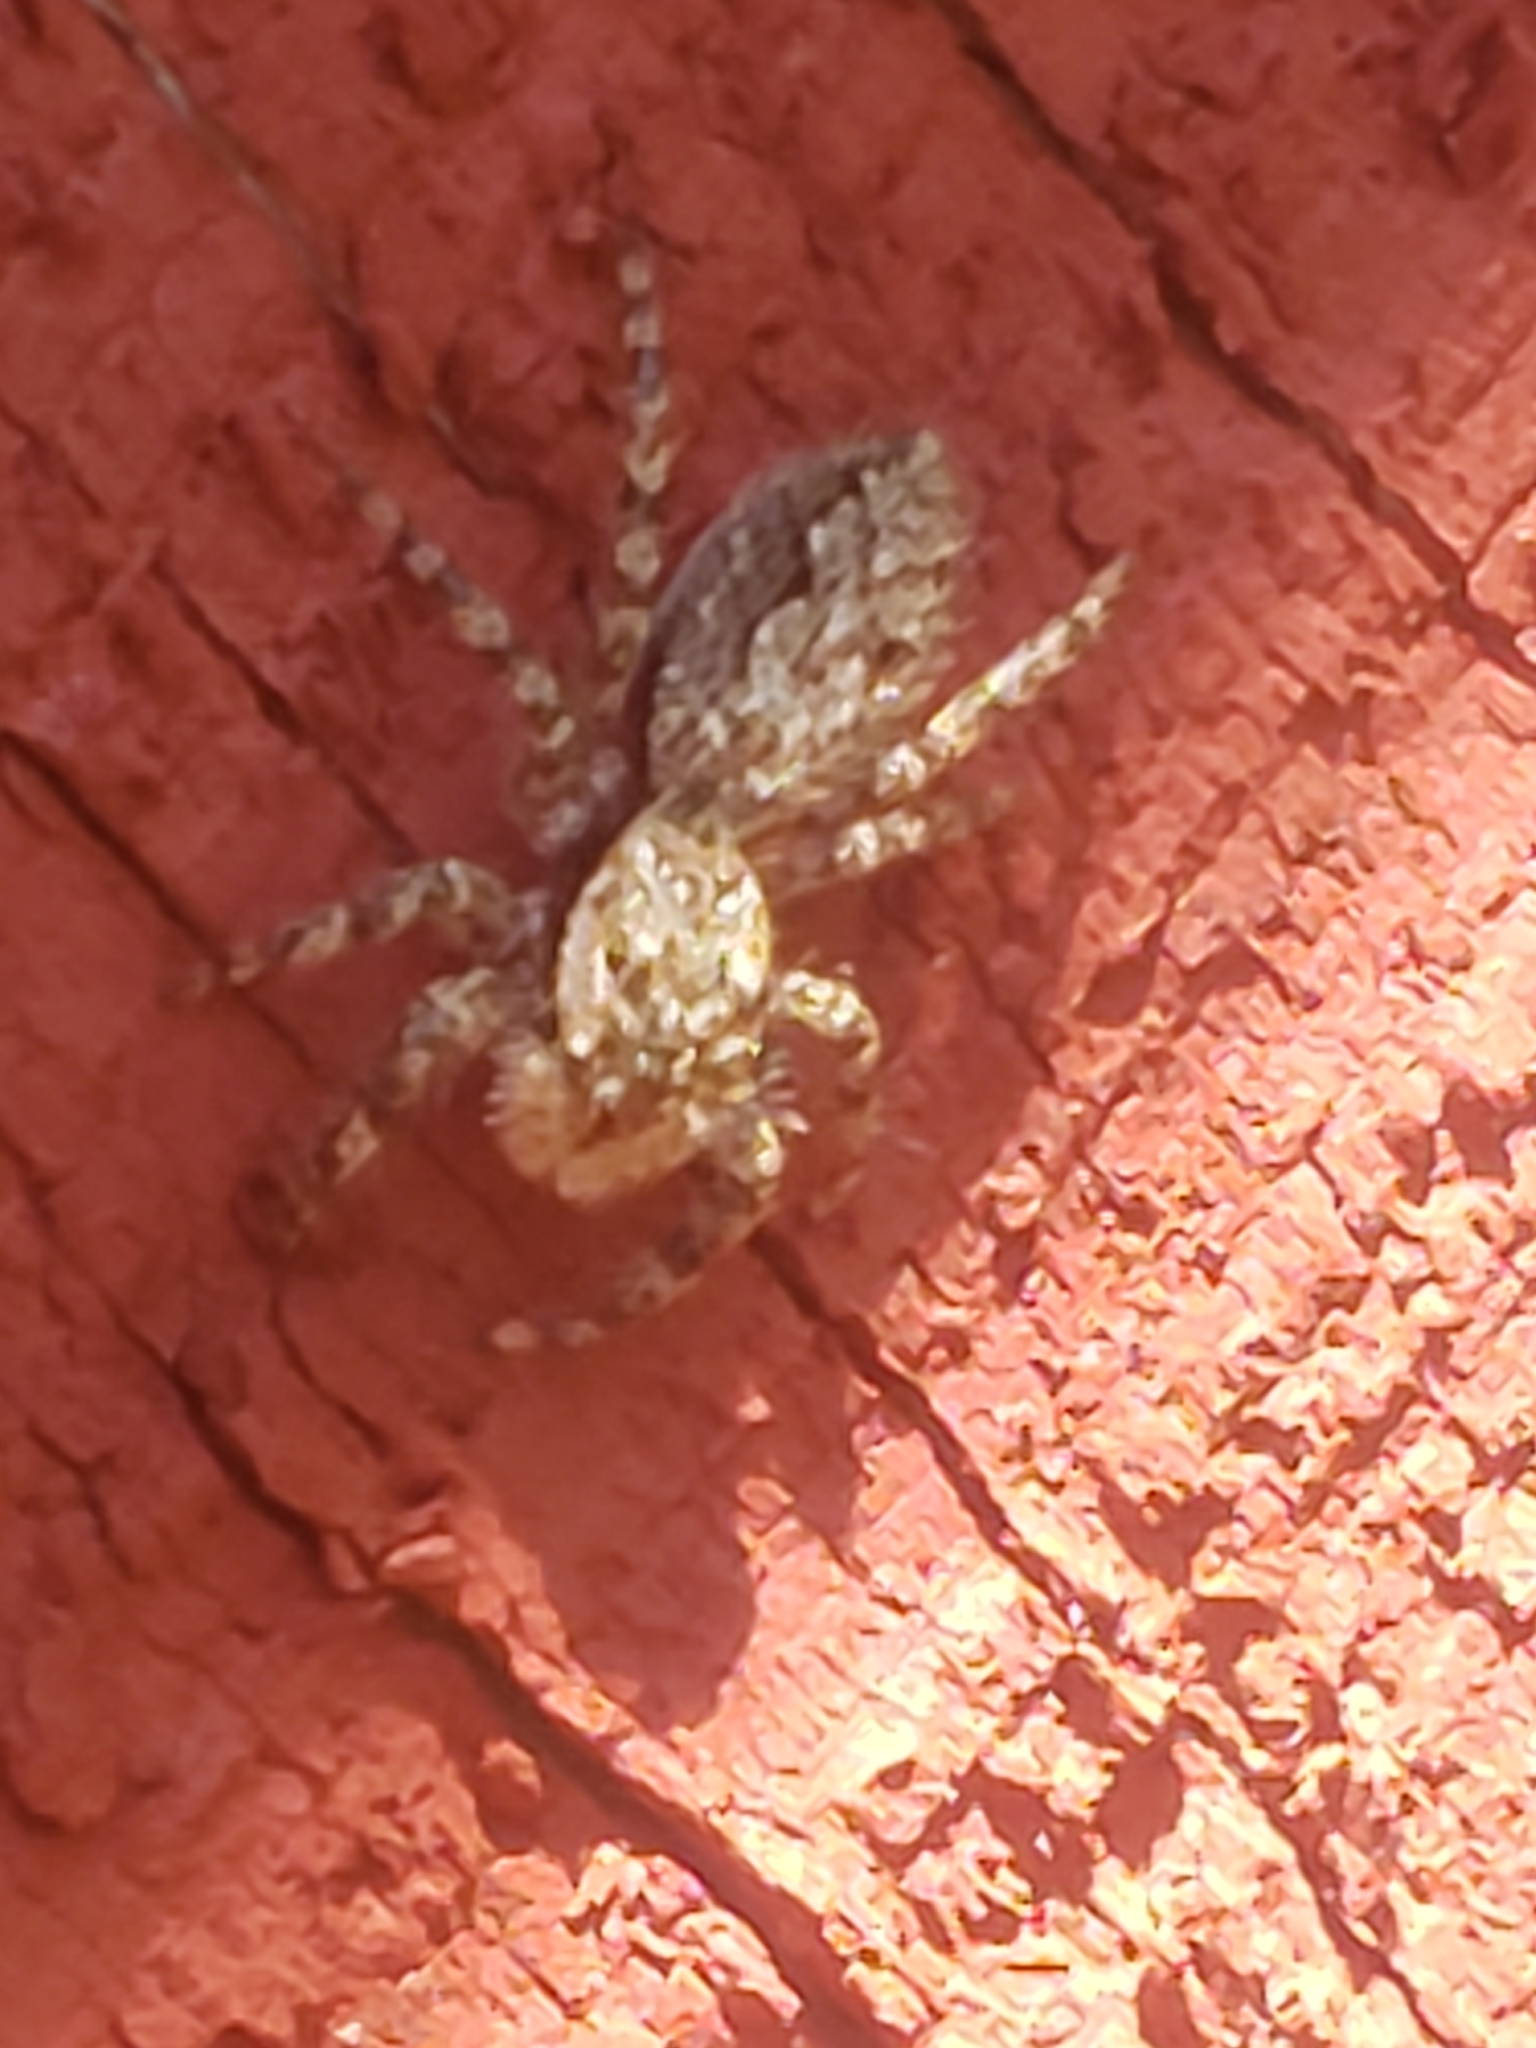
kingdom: Animalia
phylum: Arthropoda
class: Arachnida
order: Araneae
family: Salticidae
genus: Platycryptus
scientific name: Platycryptus undatus
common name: Tan jumping spider
